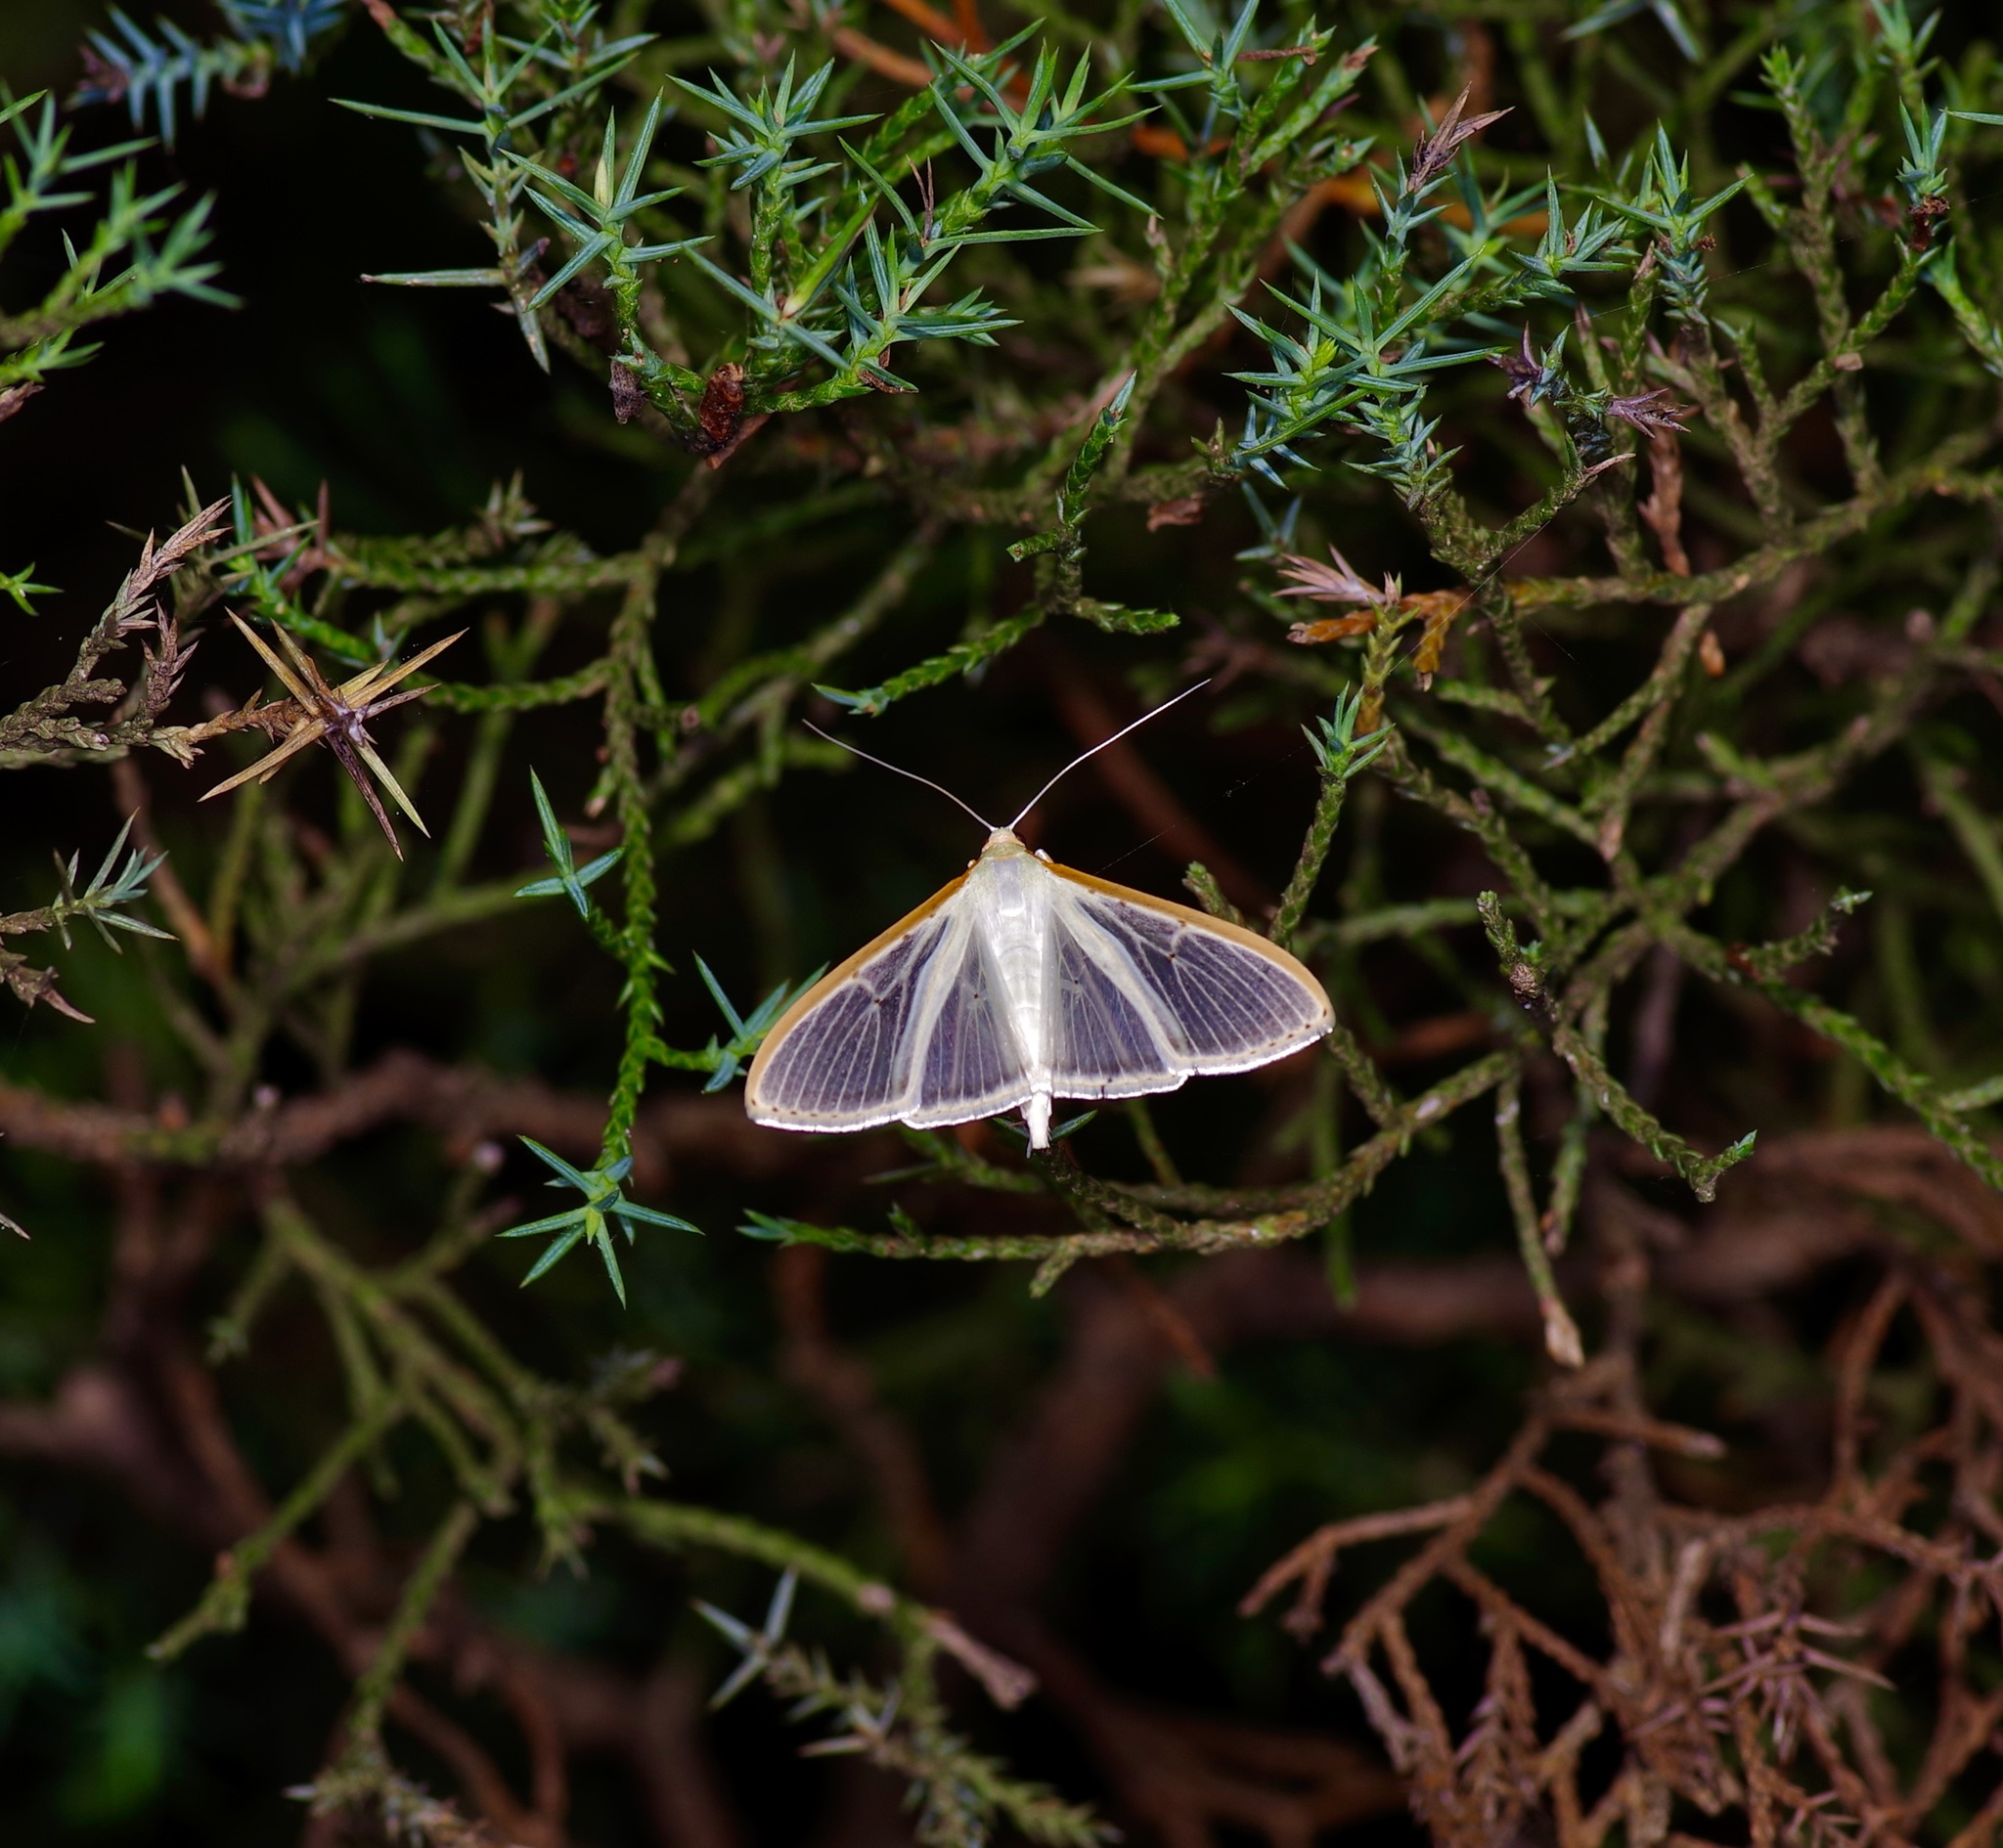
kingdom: Animalia
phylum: Arthropoda
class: Insecta
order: Lepidoptera
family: Crambidae
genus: Palpita
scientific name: Palpita quadristigmalis
